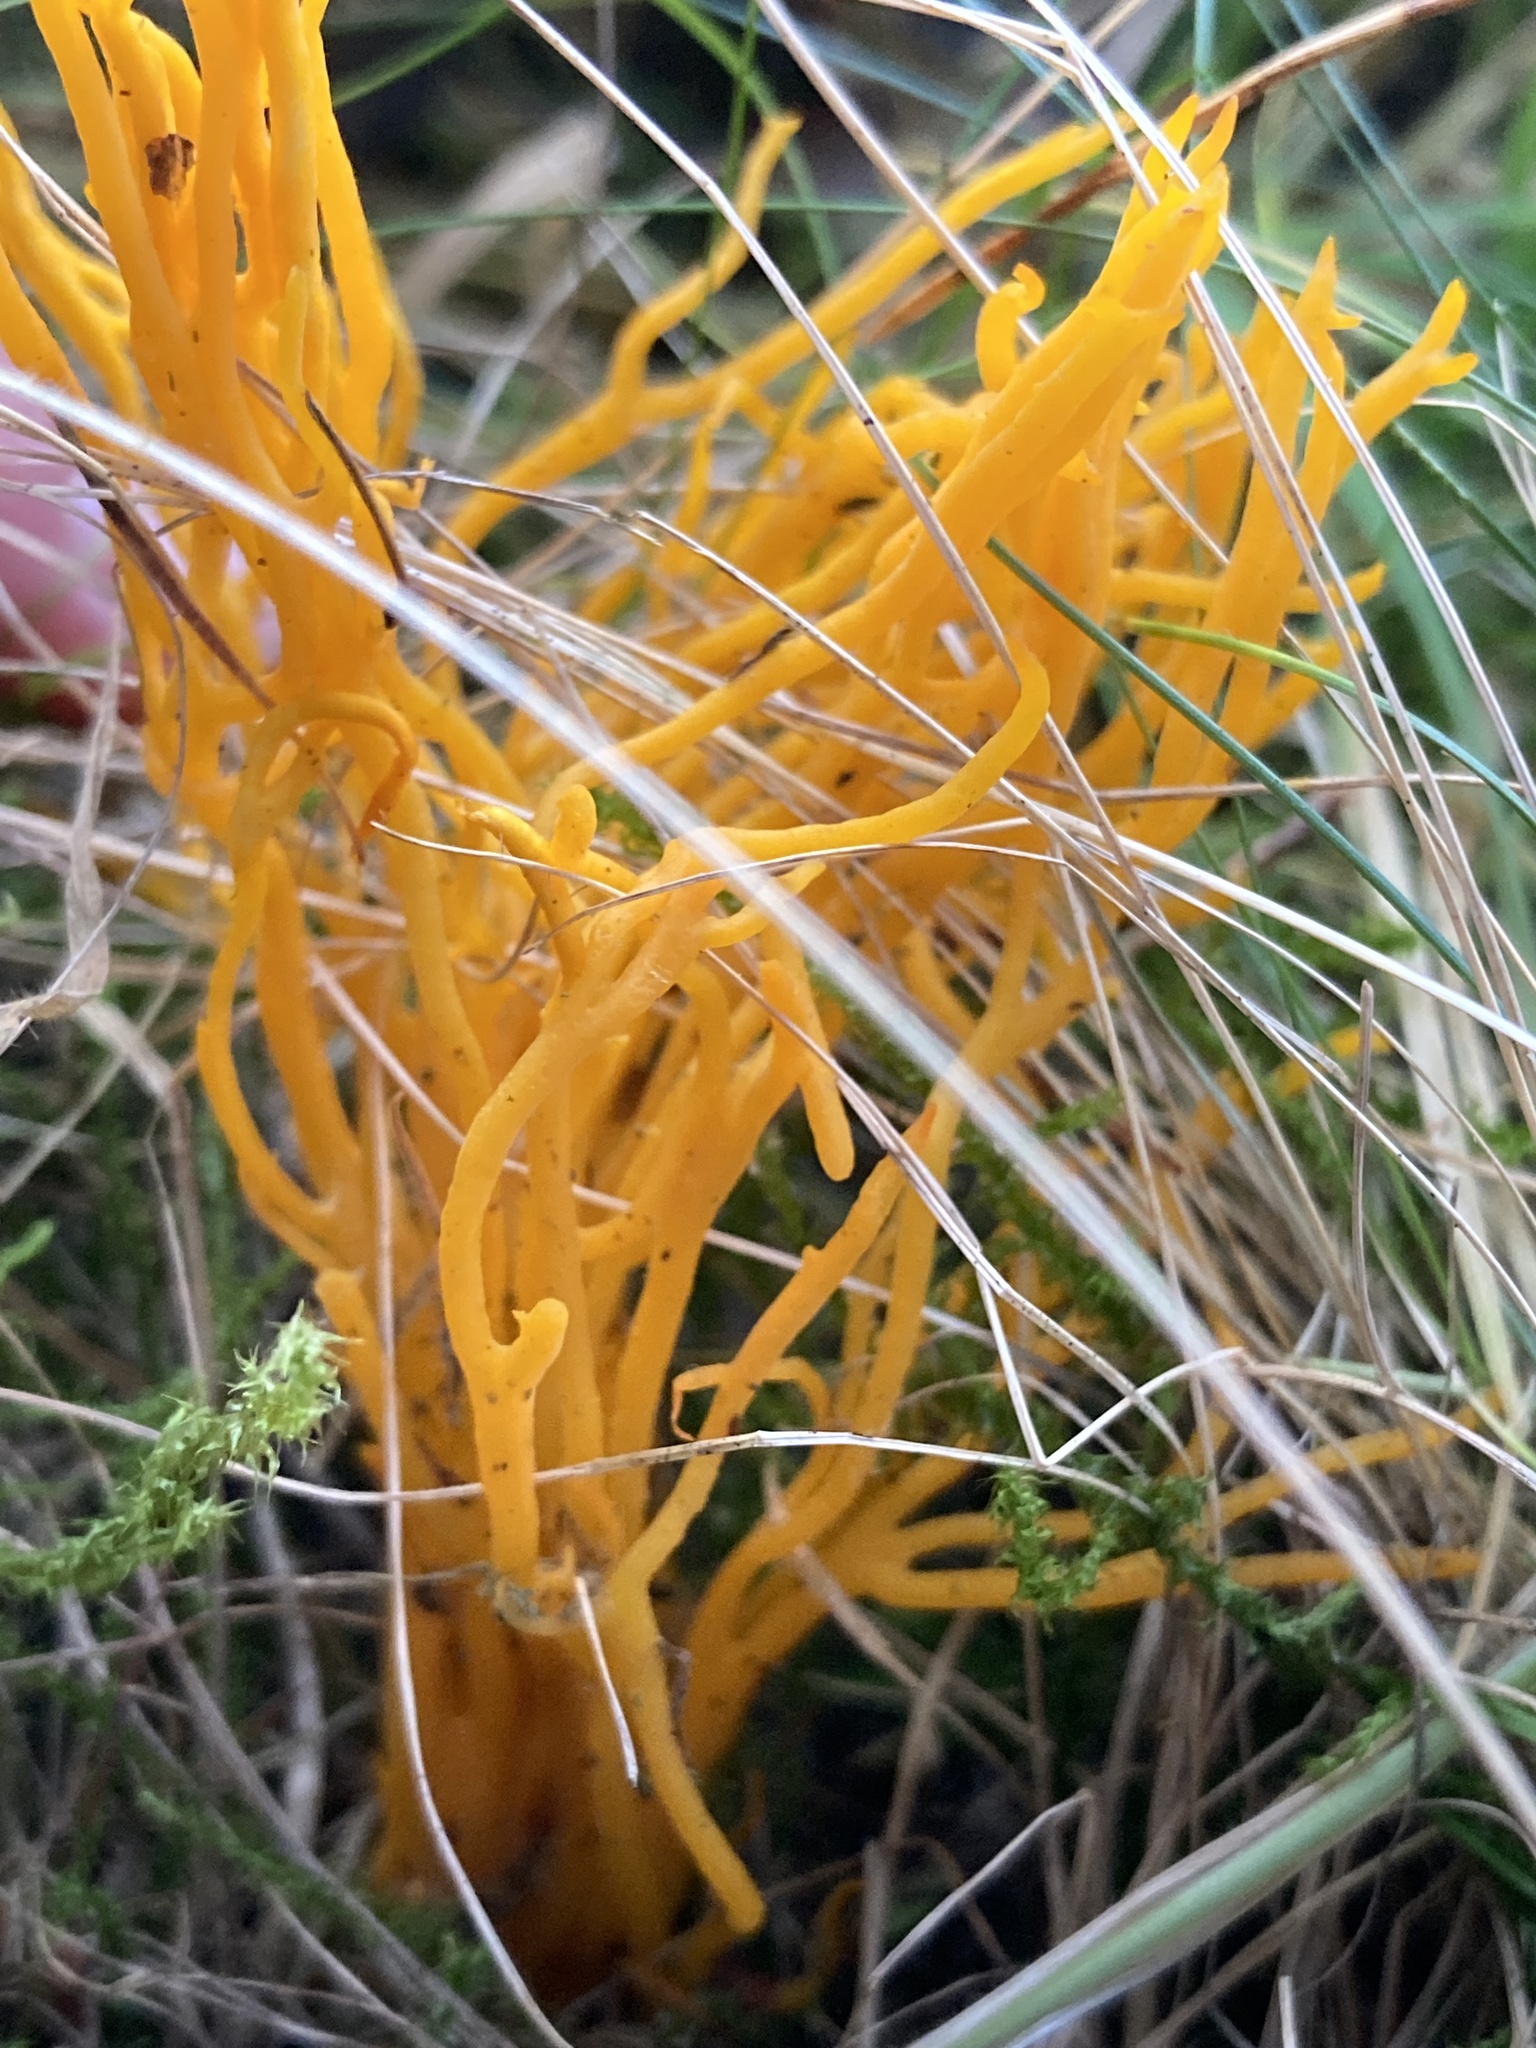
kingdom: Fungi
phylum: Basidiomycota
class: Dacrymycetes
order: Dacrymycetales
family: Dacrymycetaceae
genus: Calocera
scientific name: Calocera viscosa
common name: Yellow stagshorn
